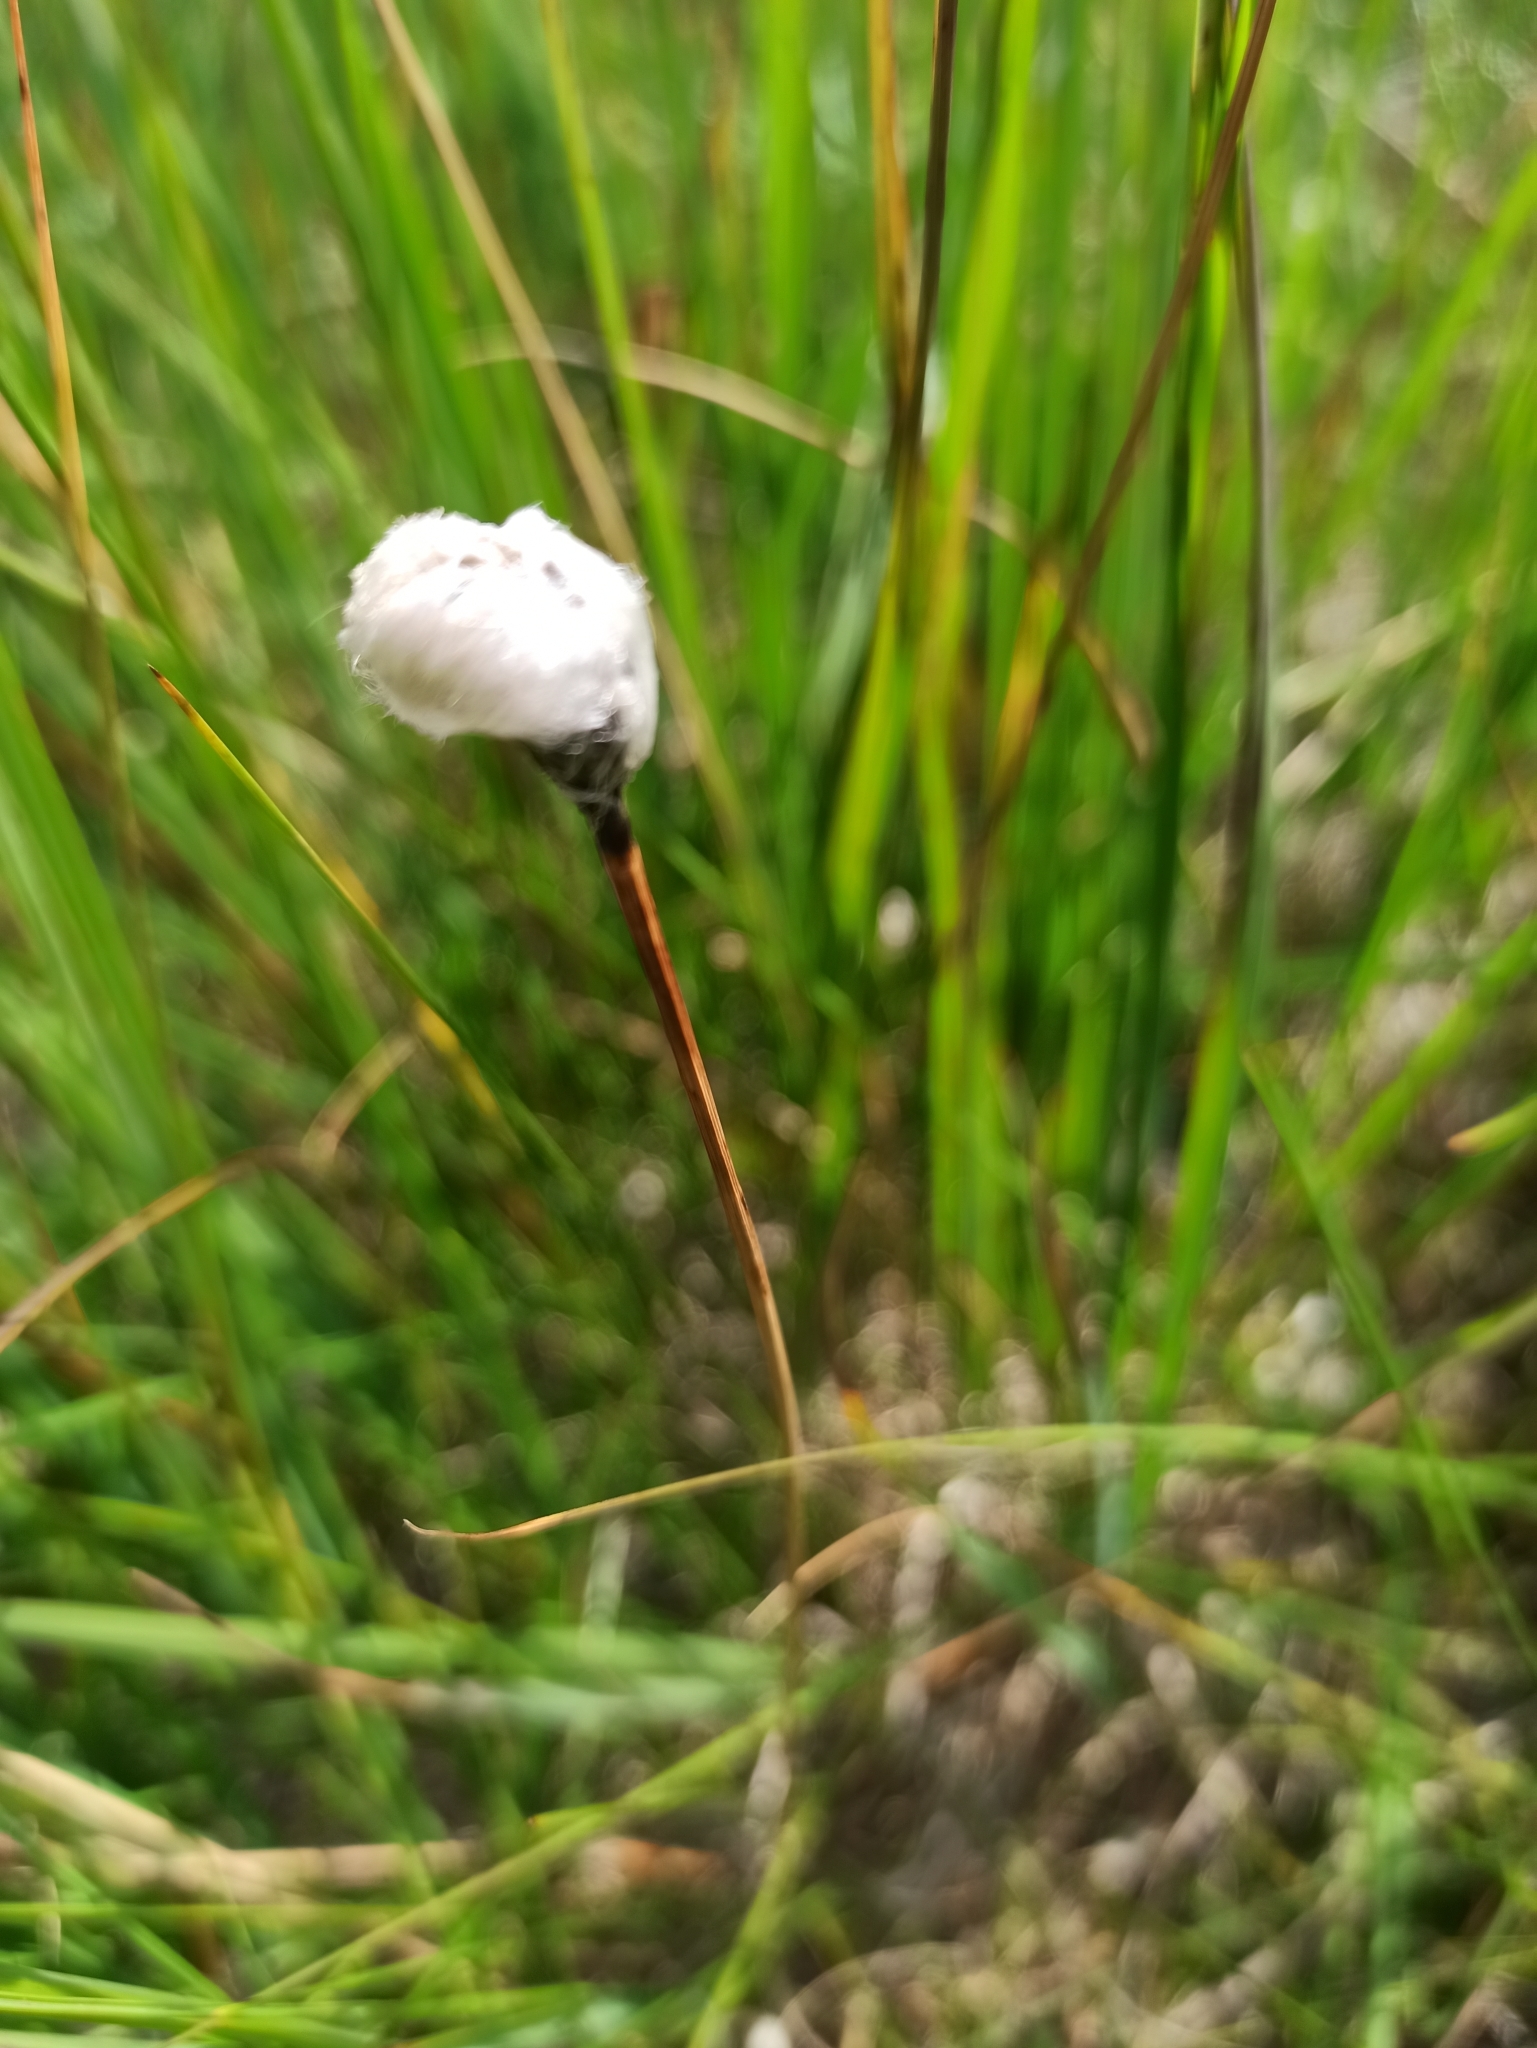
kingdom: Plantae
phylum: Tracheophyta
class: Liliopsida
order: Poales
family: Cyperaceae
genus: Eriophorum
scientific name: Eriophorum vaginatum
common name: Hare's-tail cottongrass
